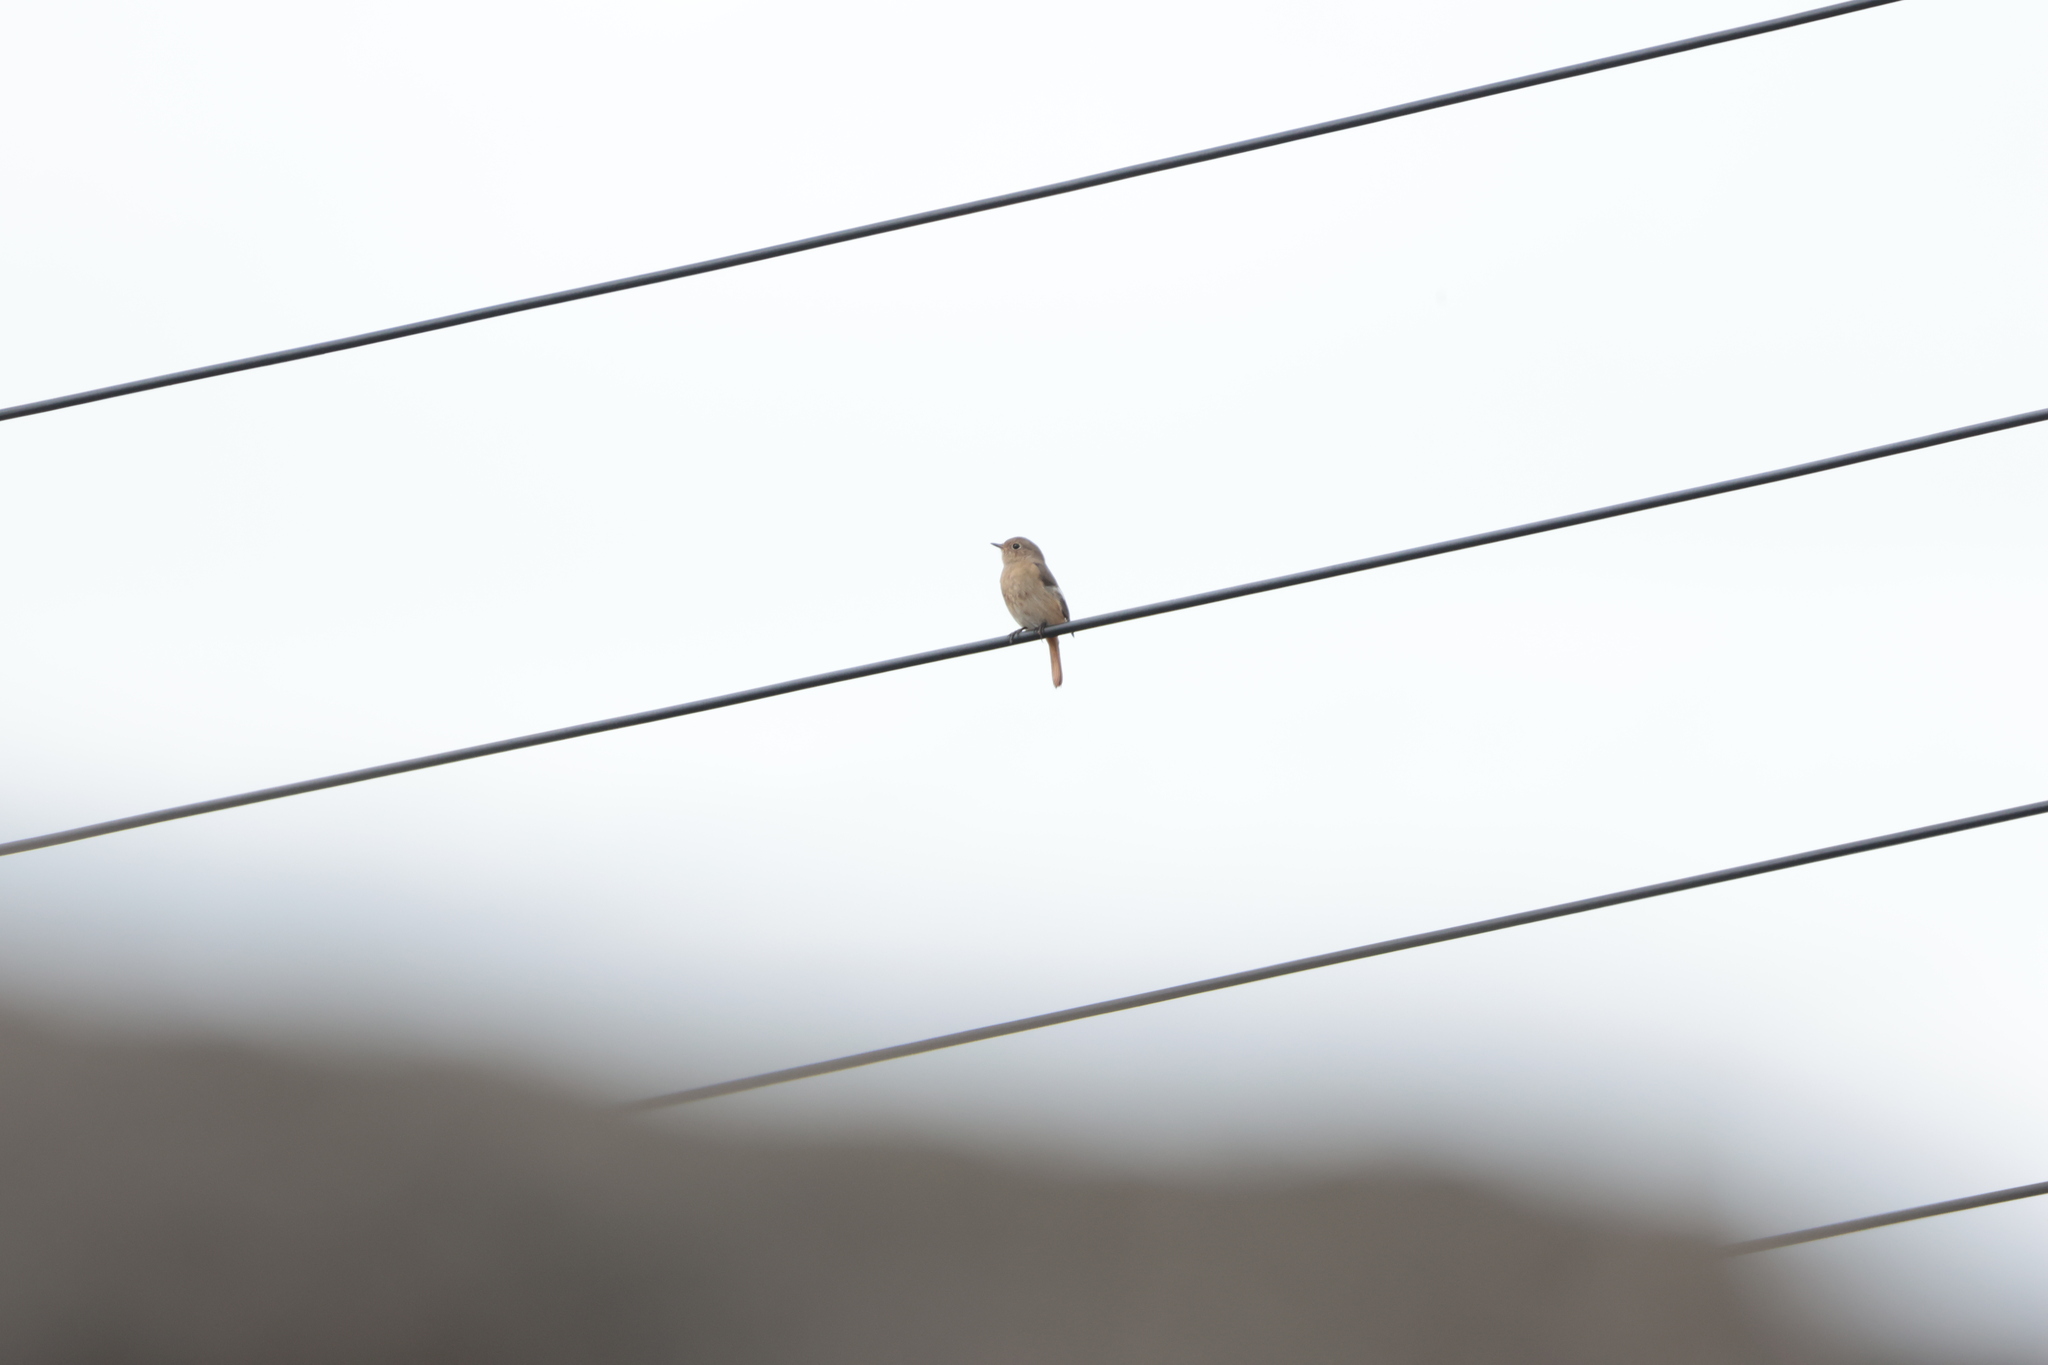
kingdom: Animalia
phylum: Chordata
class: Aves
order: Passeriformes
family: Muscicapidae
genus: Phoenicurus
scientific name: Phoenicurus auroreus
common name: Daurian redstart
